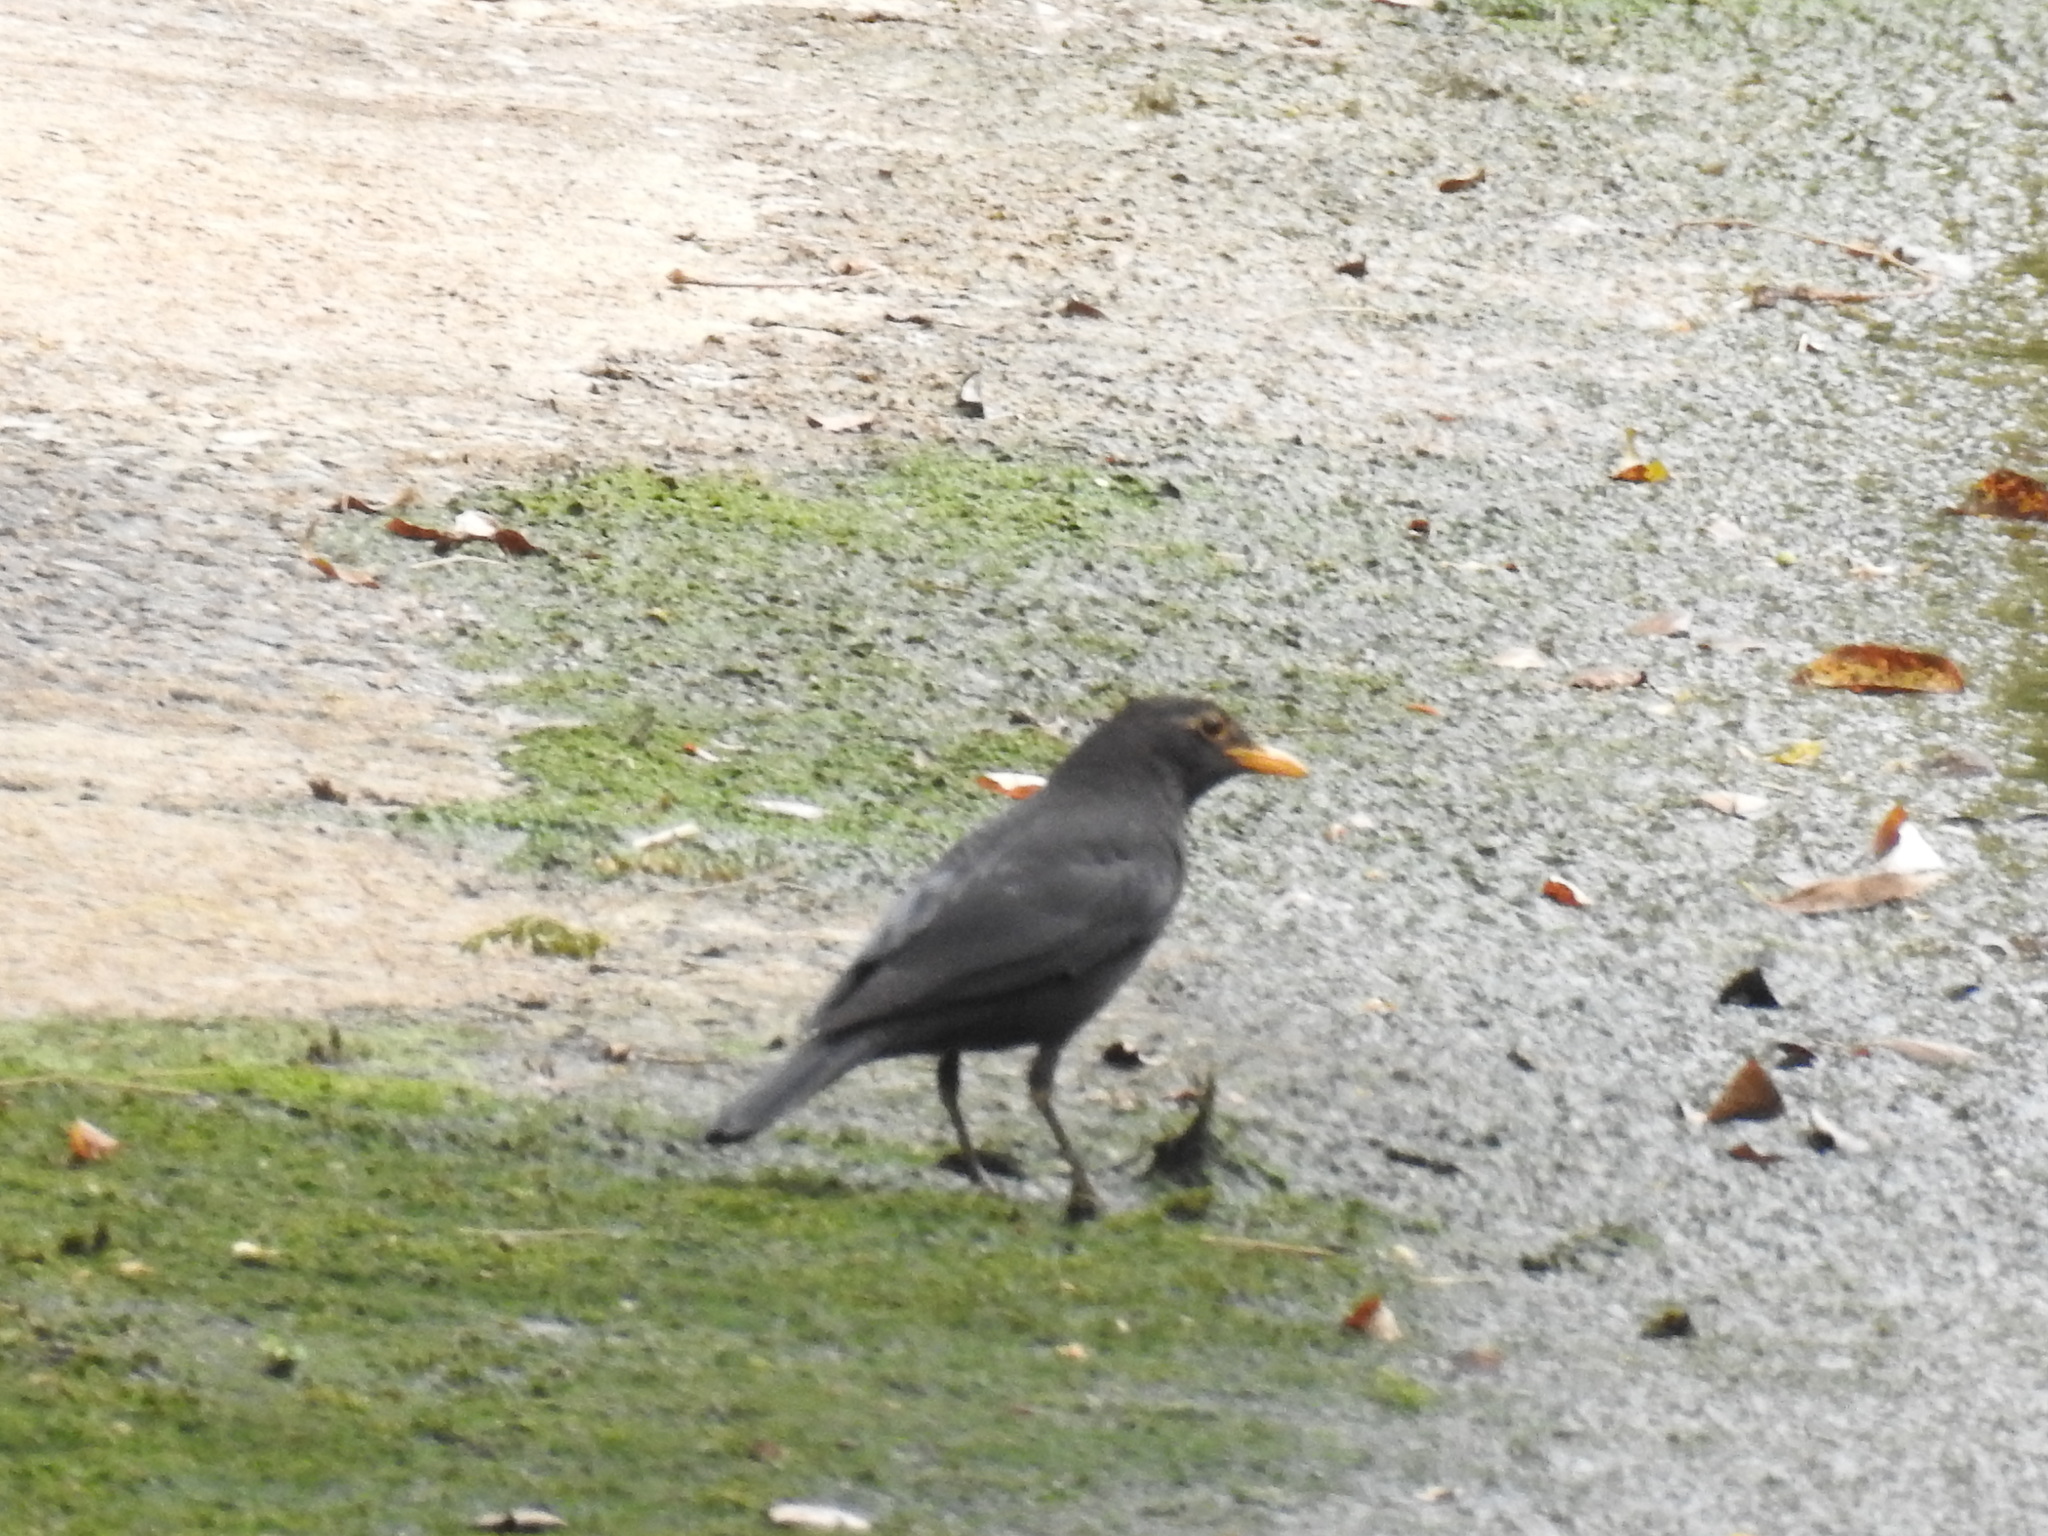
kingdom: Animalia
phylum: Chordata
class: Aves
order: Passeriformes
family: Turdidae
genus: Turdus
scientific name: Turdus mandarinus
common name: Chinese blackbird
